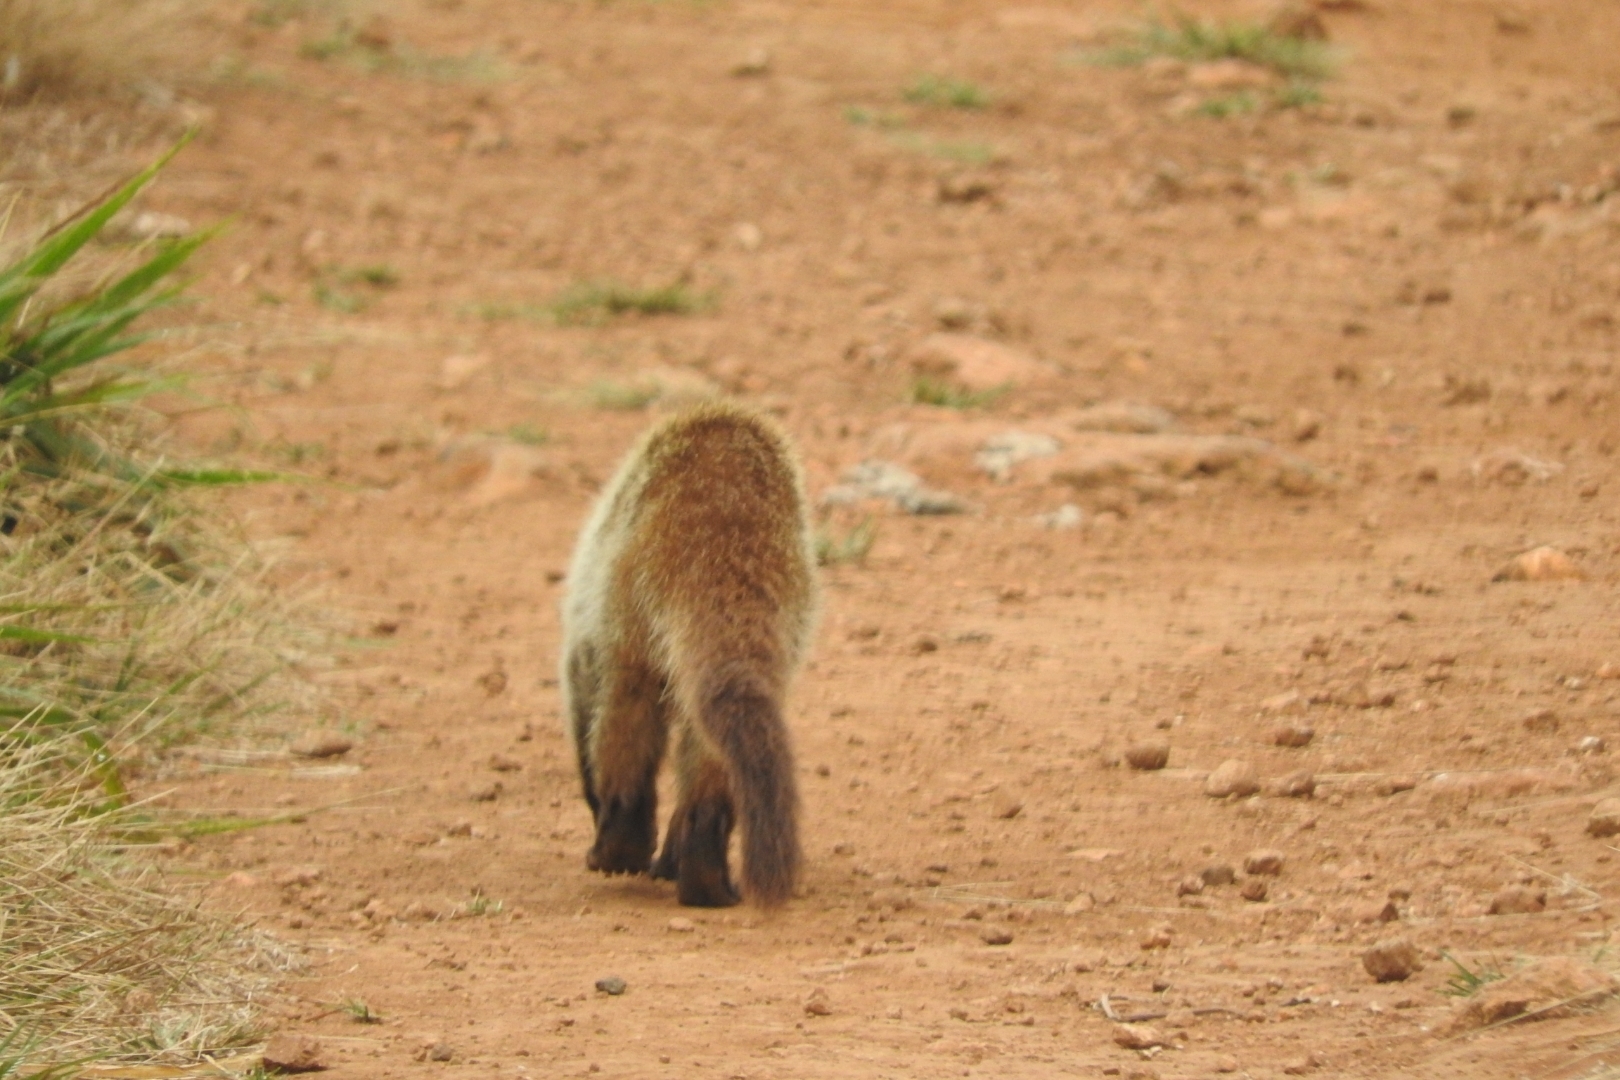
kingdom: Animalia
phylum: Chordata
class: Mammalia
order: Carnivora
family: Procyonidae
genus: Nasua
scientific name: Nasua narica
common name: White-nosed coati
